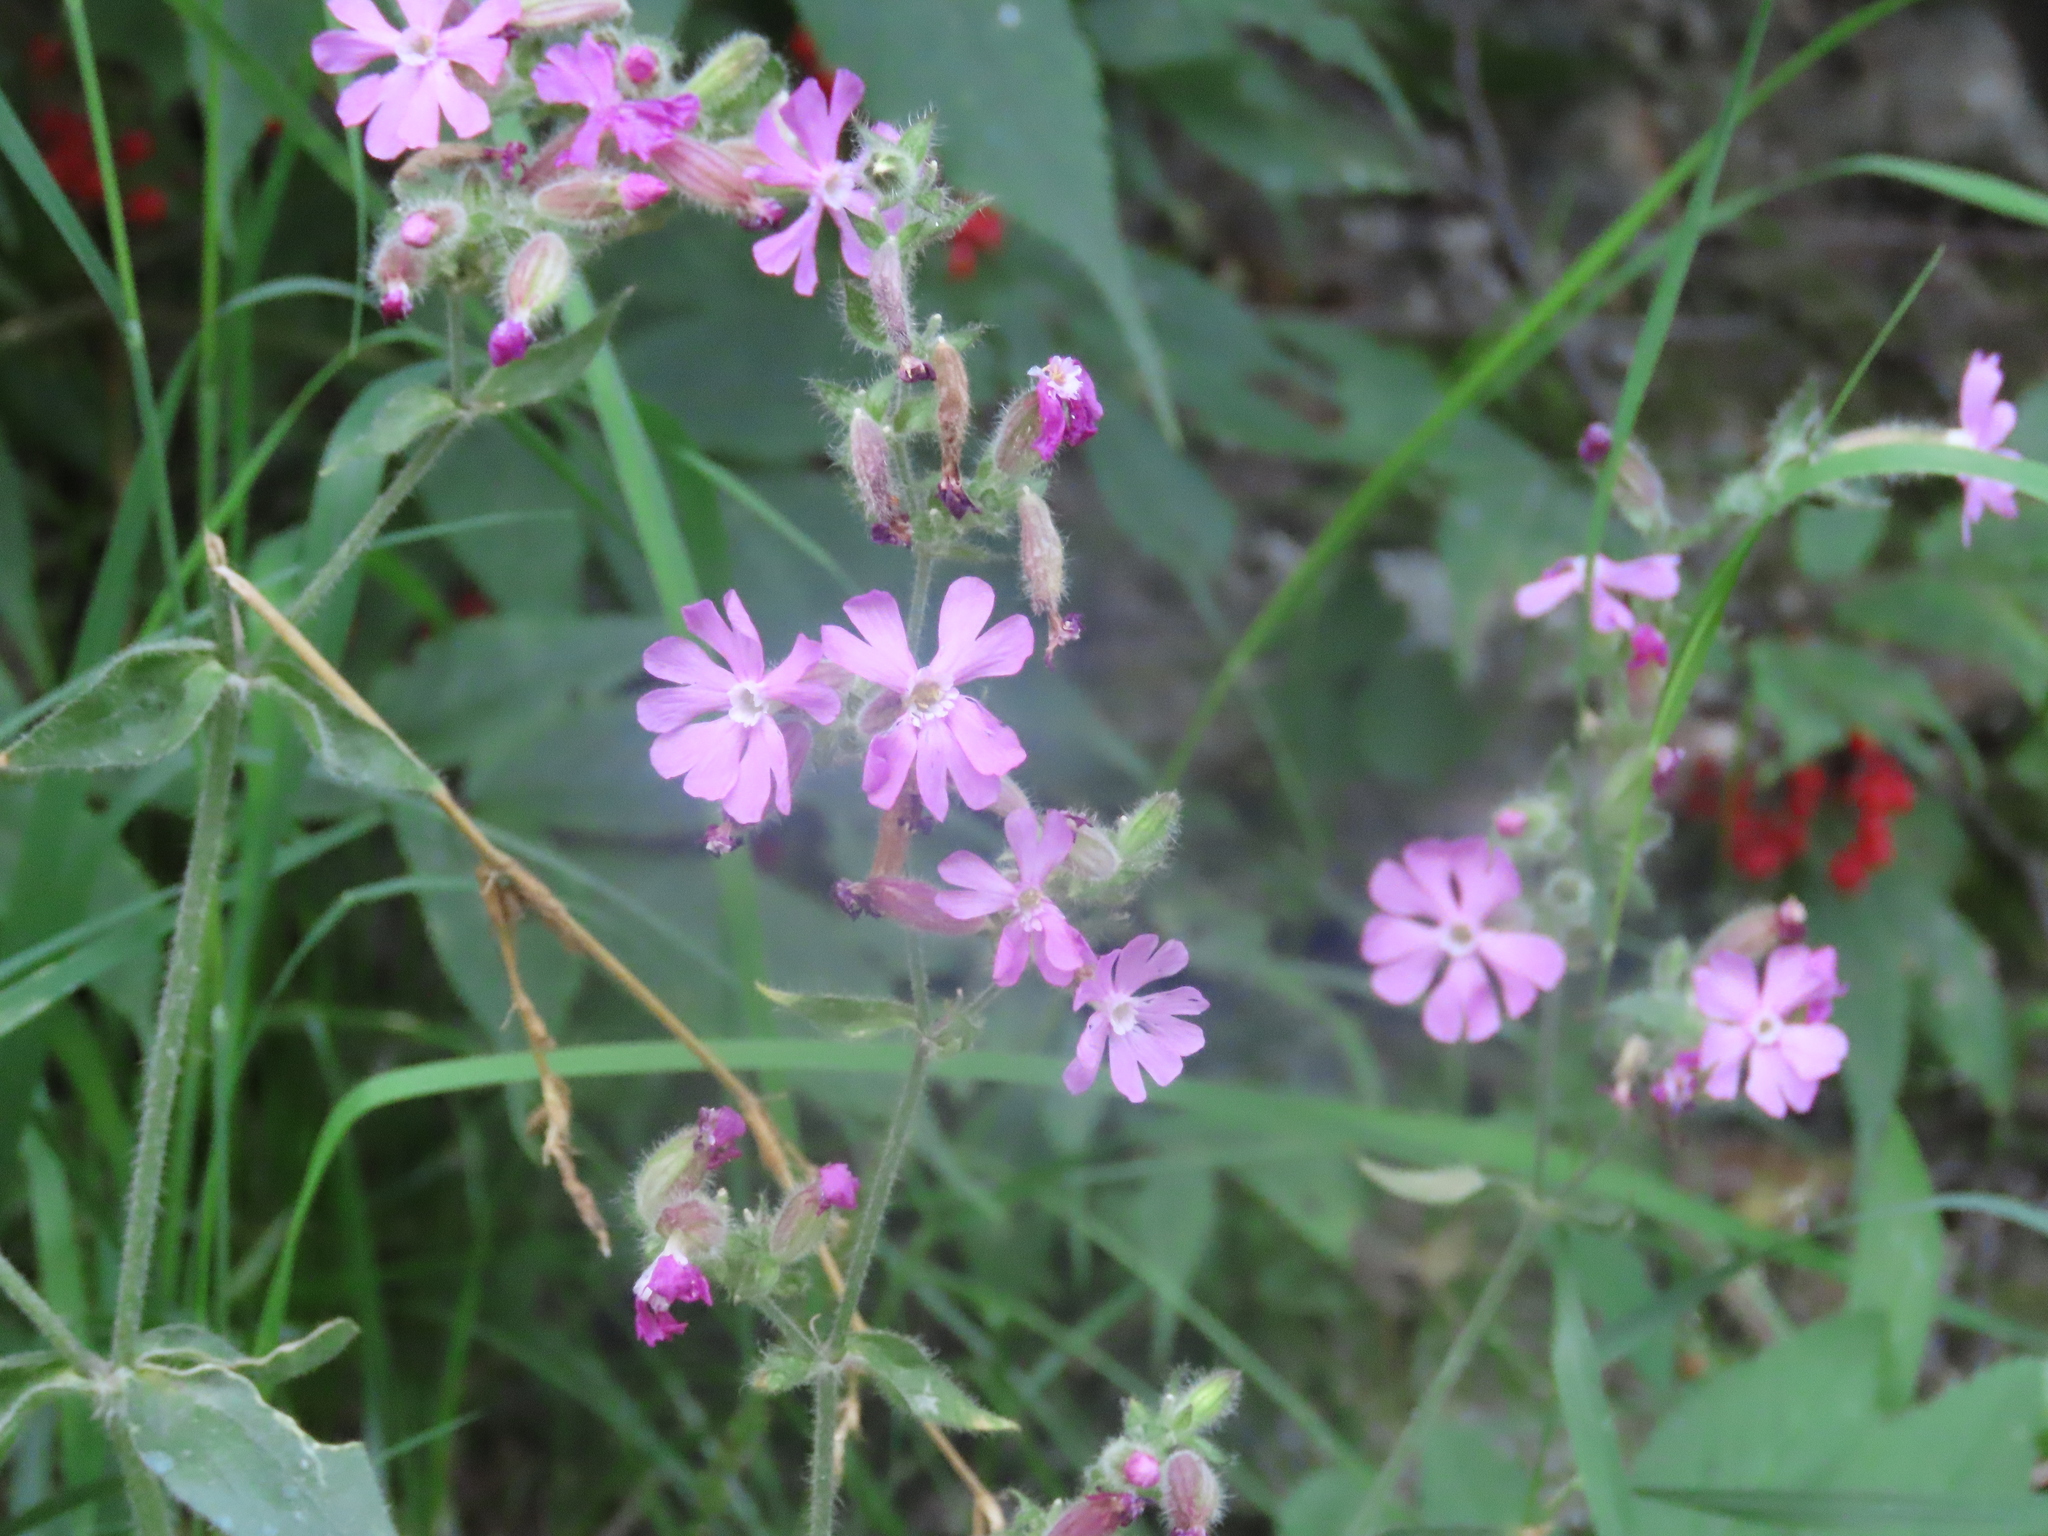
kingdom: Plantae
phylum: Tracheophyta
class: Magnoliopsida
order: Caryophyllales
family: Caryophyllaceae
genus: Silene
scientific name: Silene dioica
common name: Red campion
